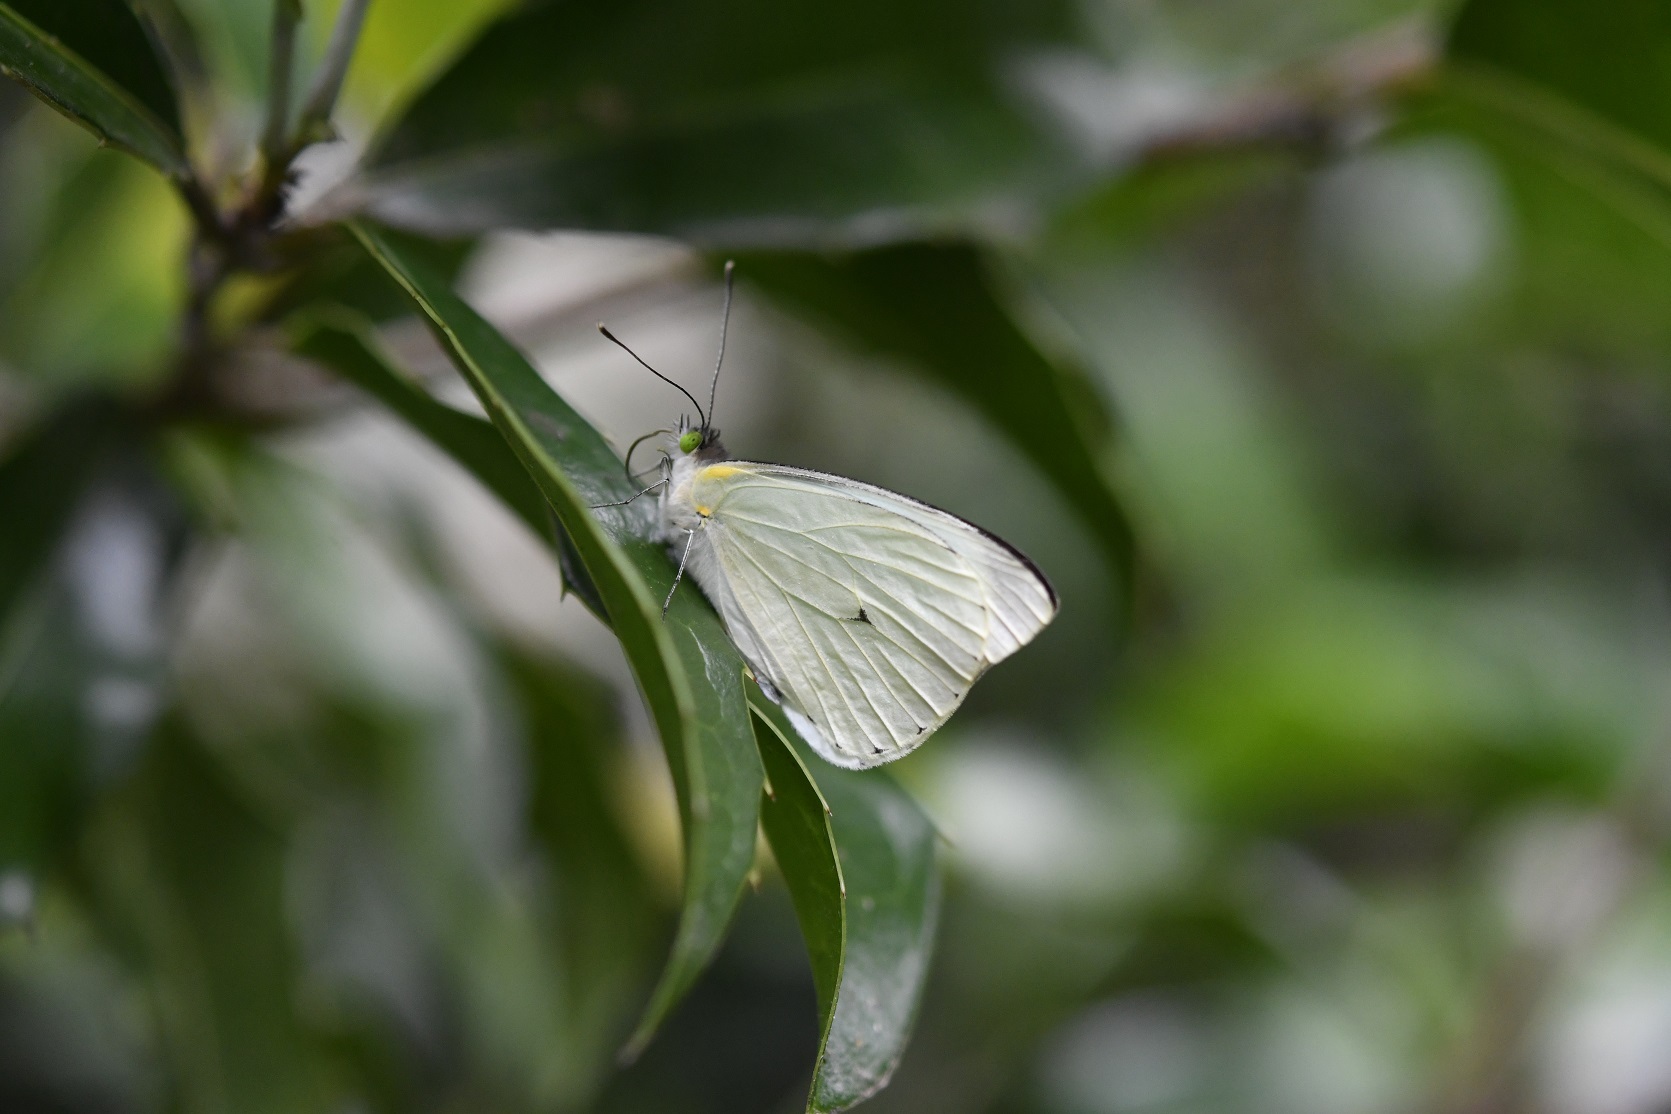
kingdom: Animalia
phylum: Arthropoda
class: Insecta
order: Lepidoptera
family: Pieridae
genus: Leptophobia
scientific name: Leptophobia aripa
